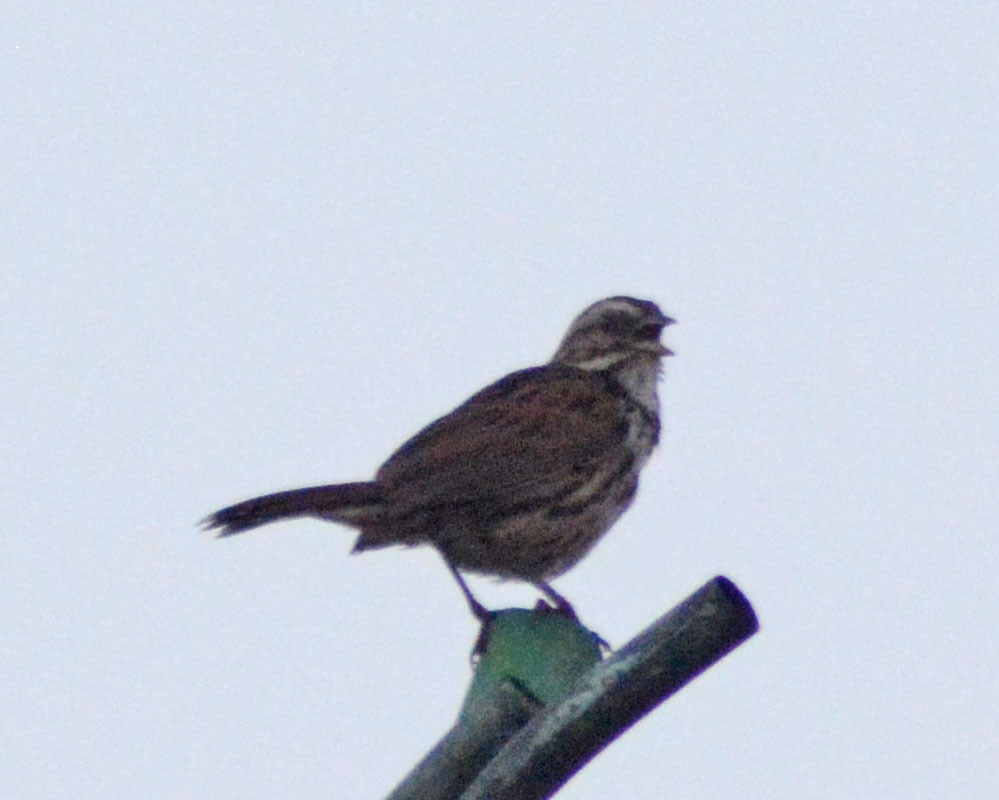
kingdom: Animalia
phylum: Chordata
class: Aves
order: Passeriformes
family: Passerellidae
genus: Melospiza
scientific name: Melospiza melodia
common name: Song sparrow
